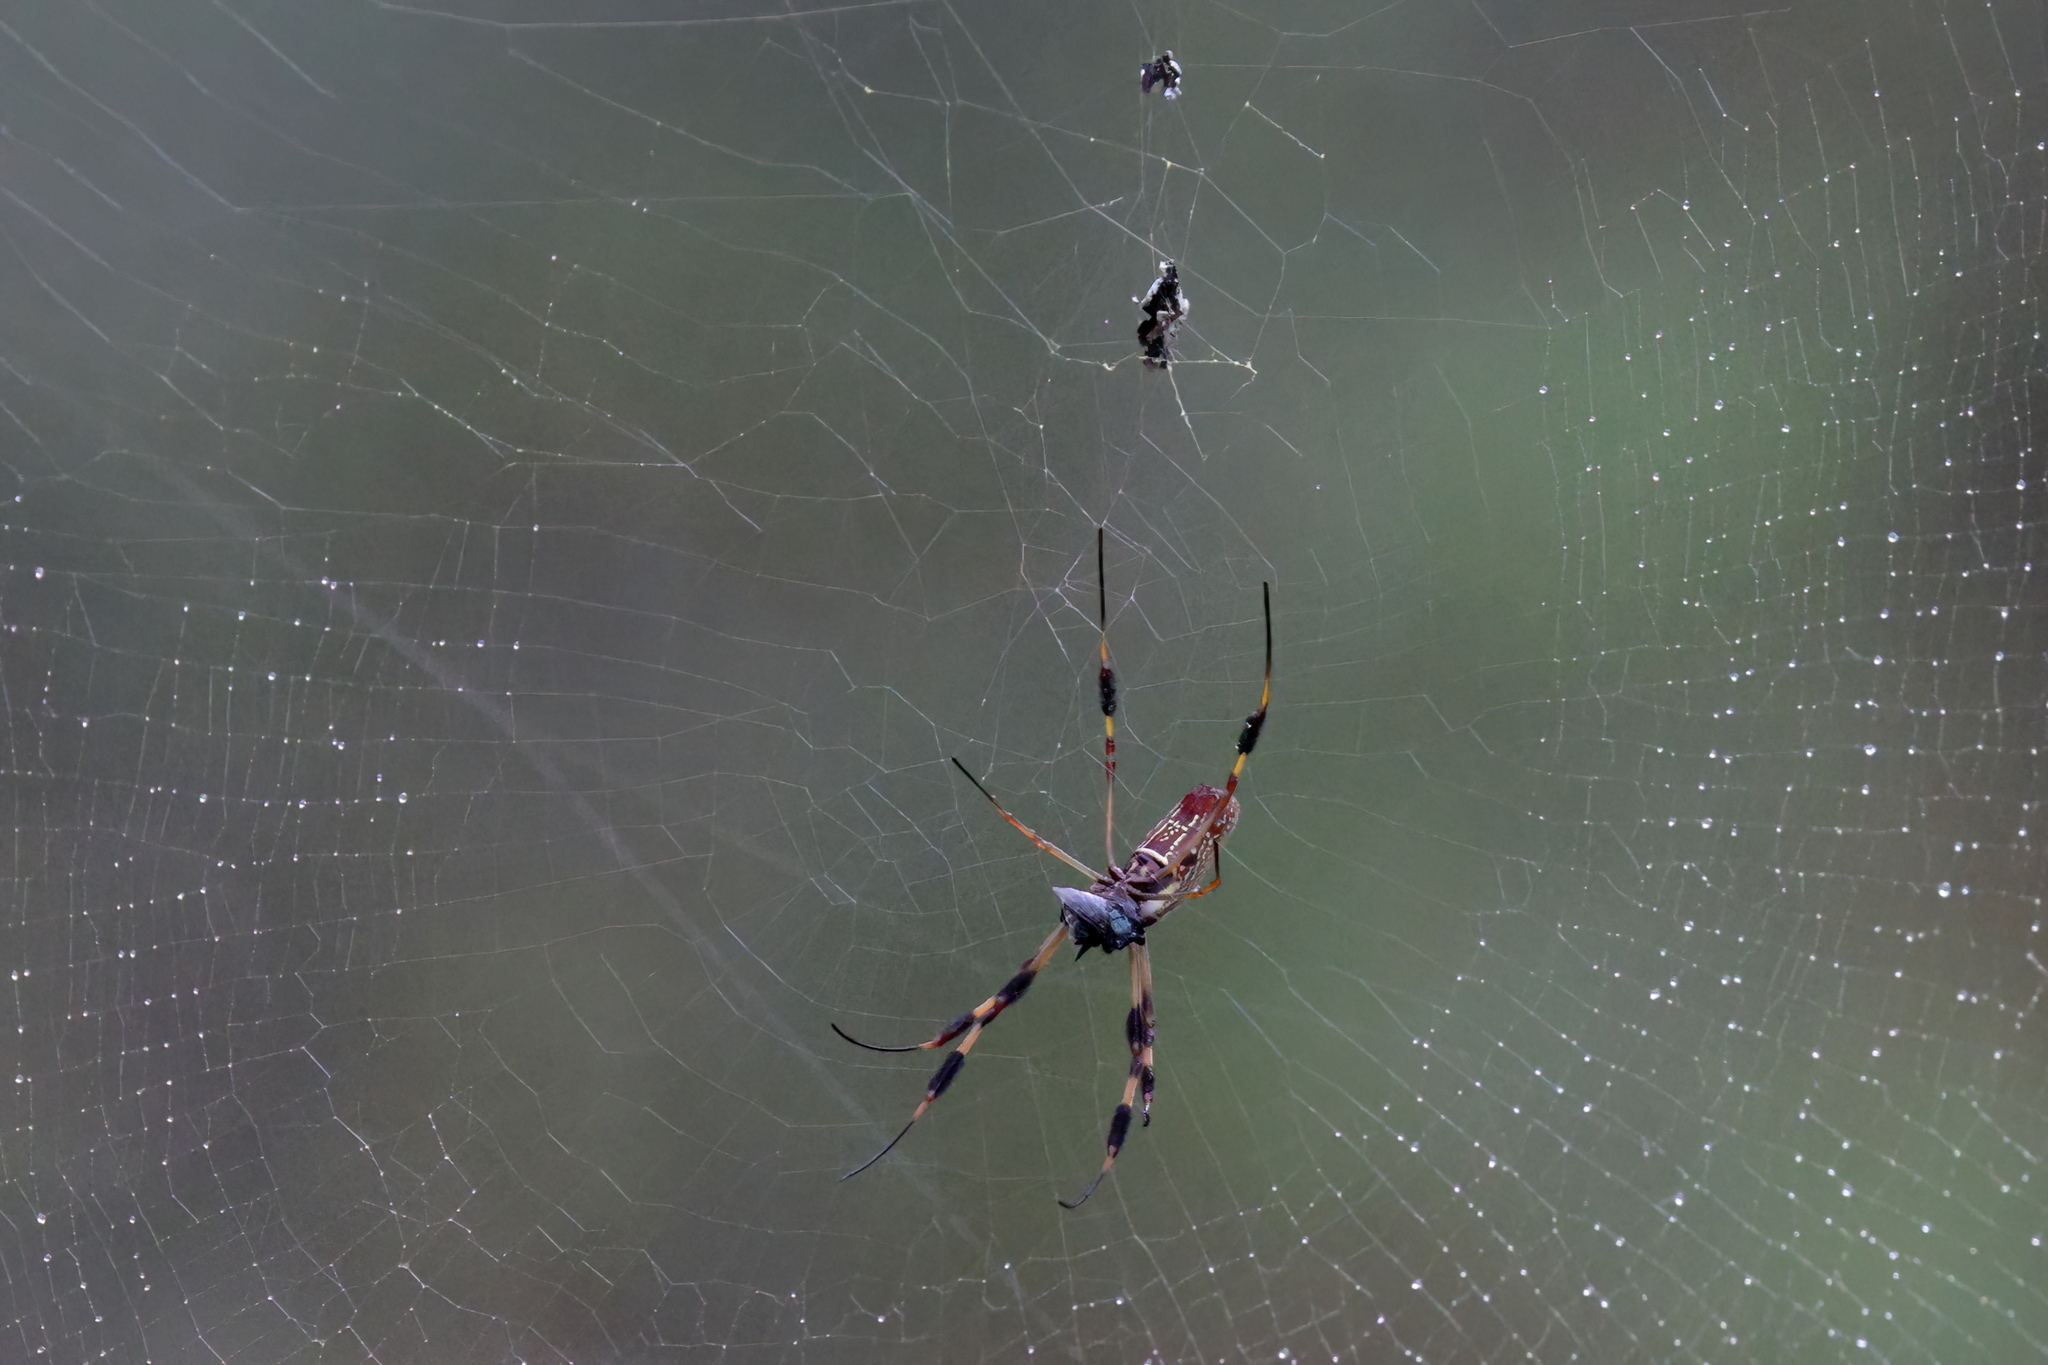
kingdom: Animalia
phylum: Arthropoda
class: Arachnida
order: Araneae
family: Araneidae
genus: Trichonephila
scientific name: Trichonephila clavipes
